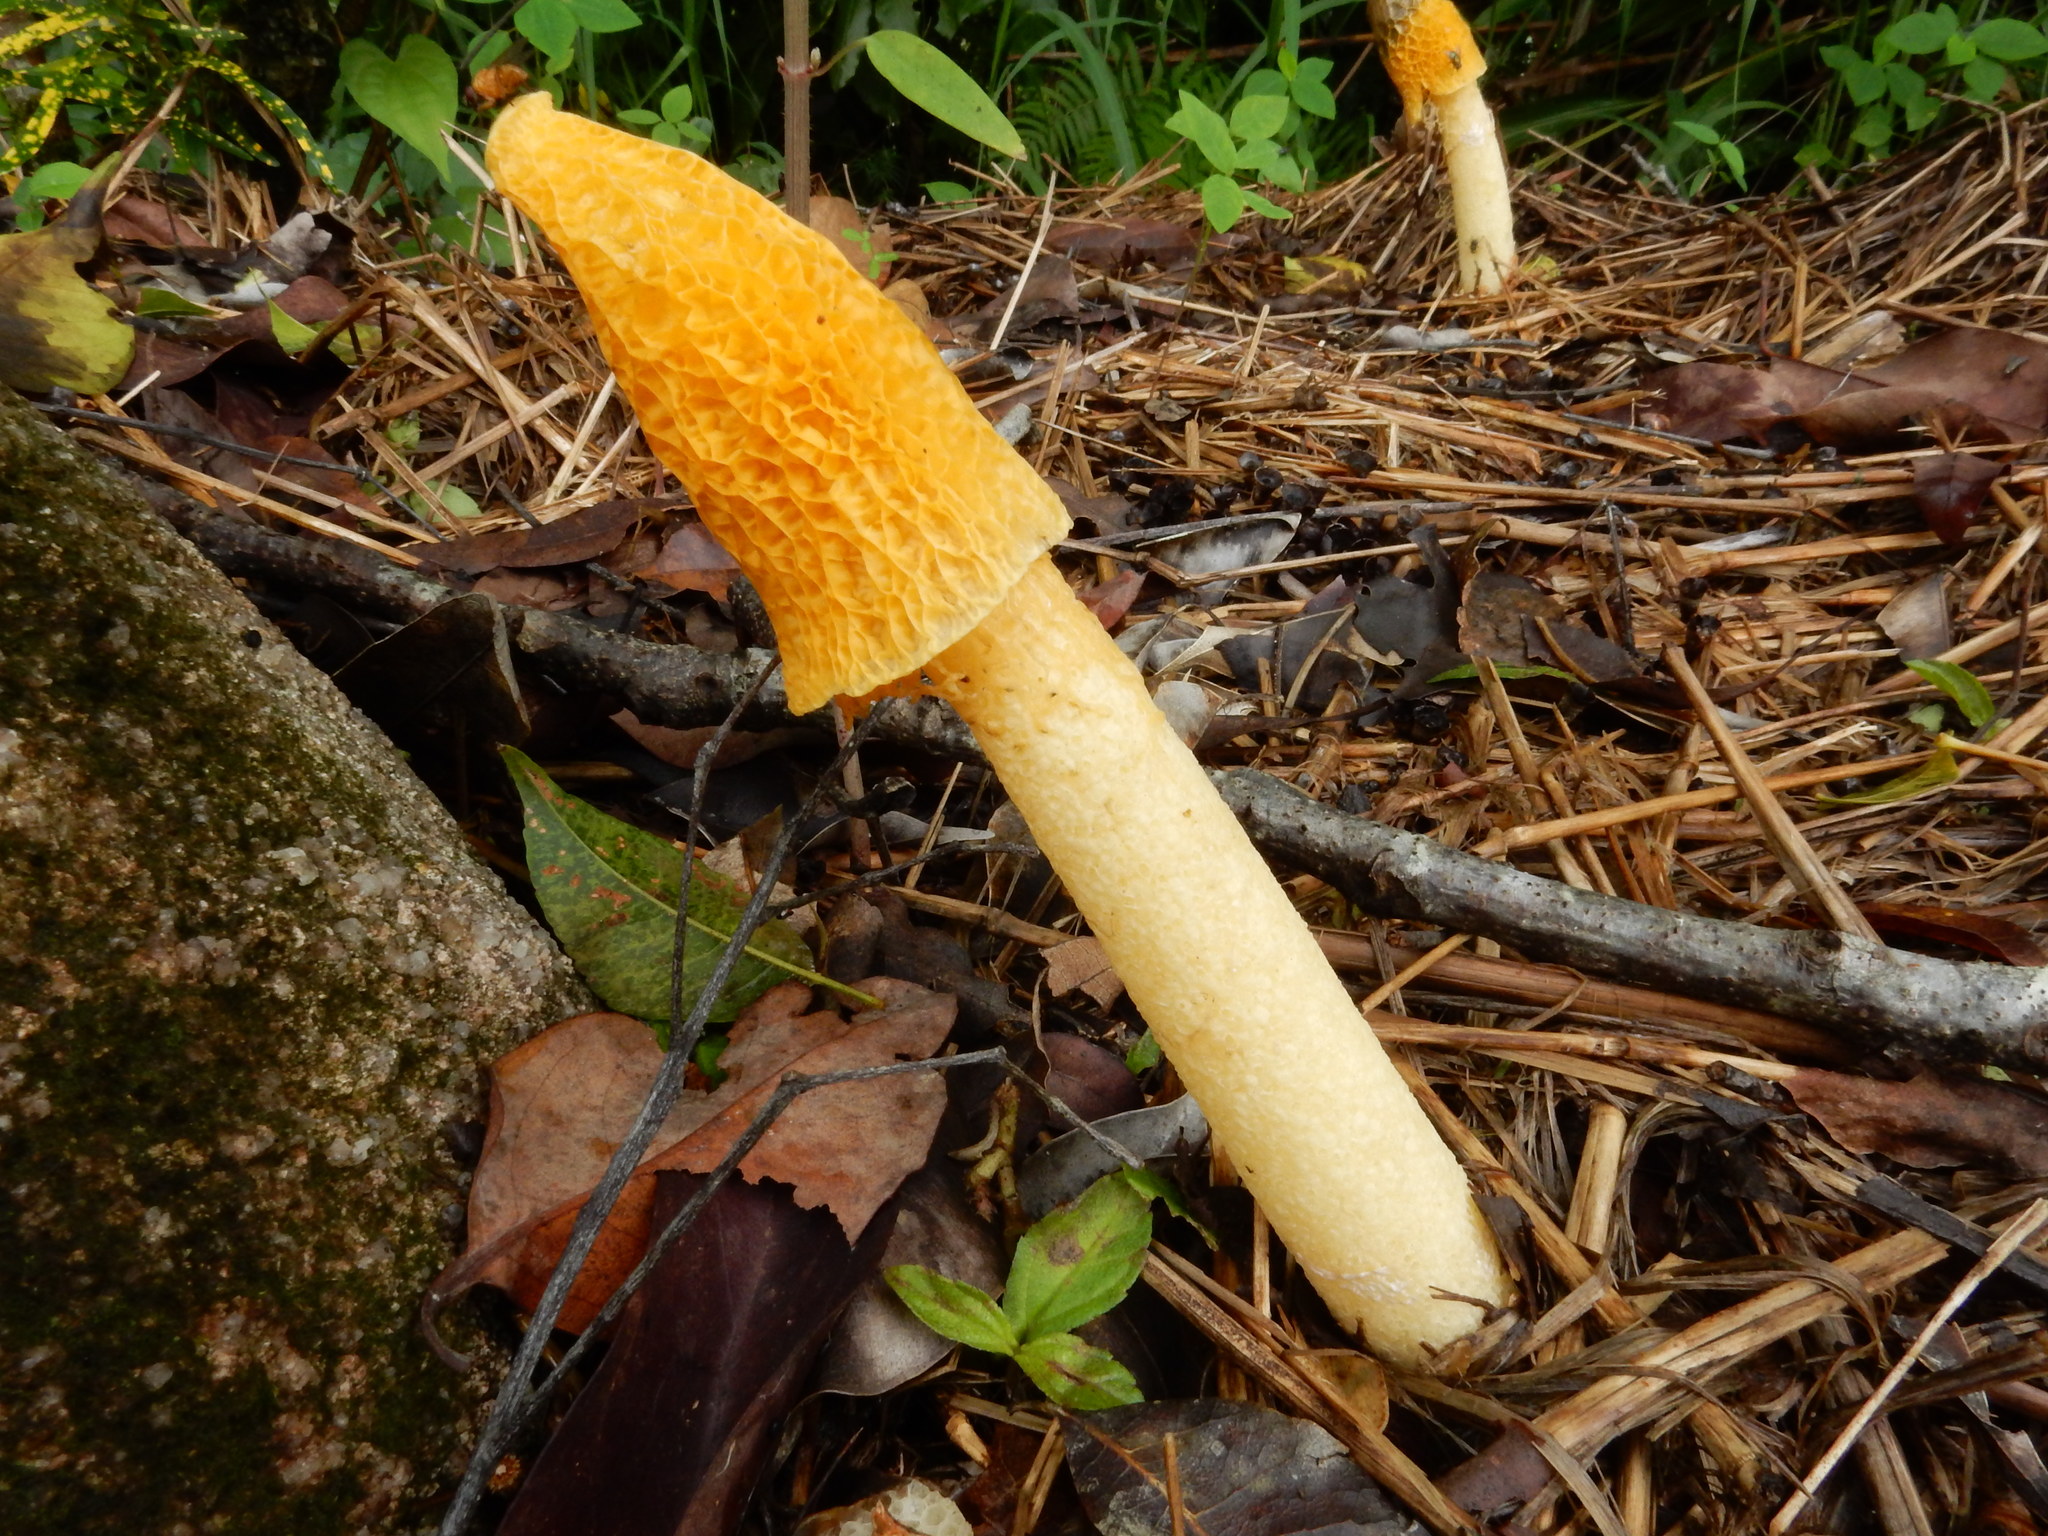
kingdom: Fungi
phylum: Basidiomycota
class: Agaricomycetes
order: Phallales
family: Phallaceae
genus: Phallus
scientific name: Phallus multicolor
